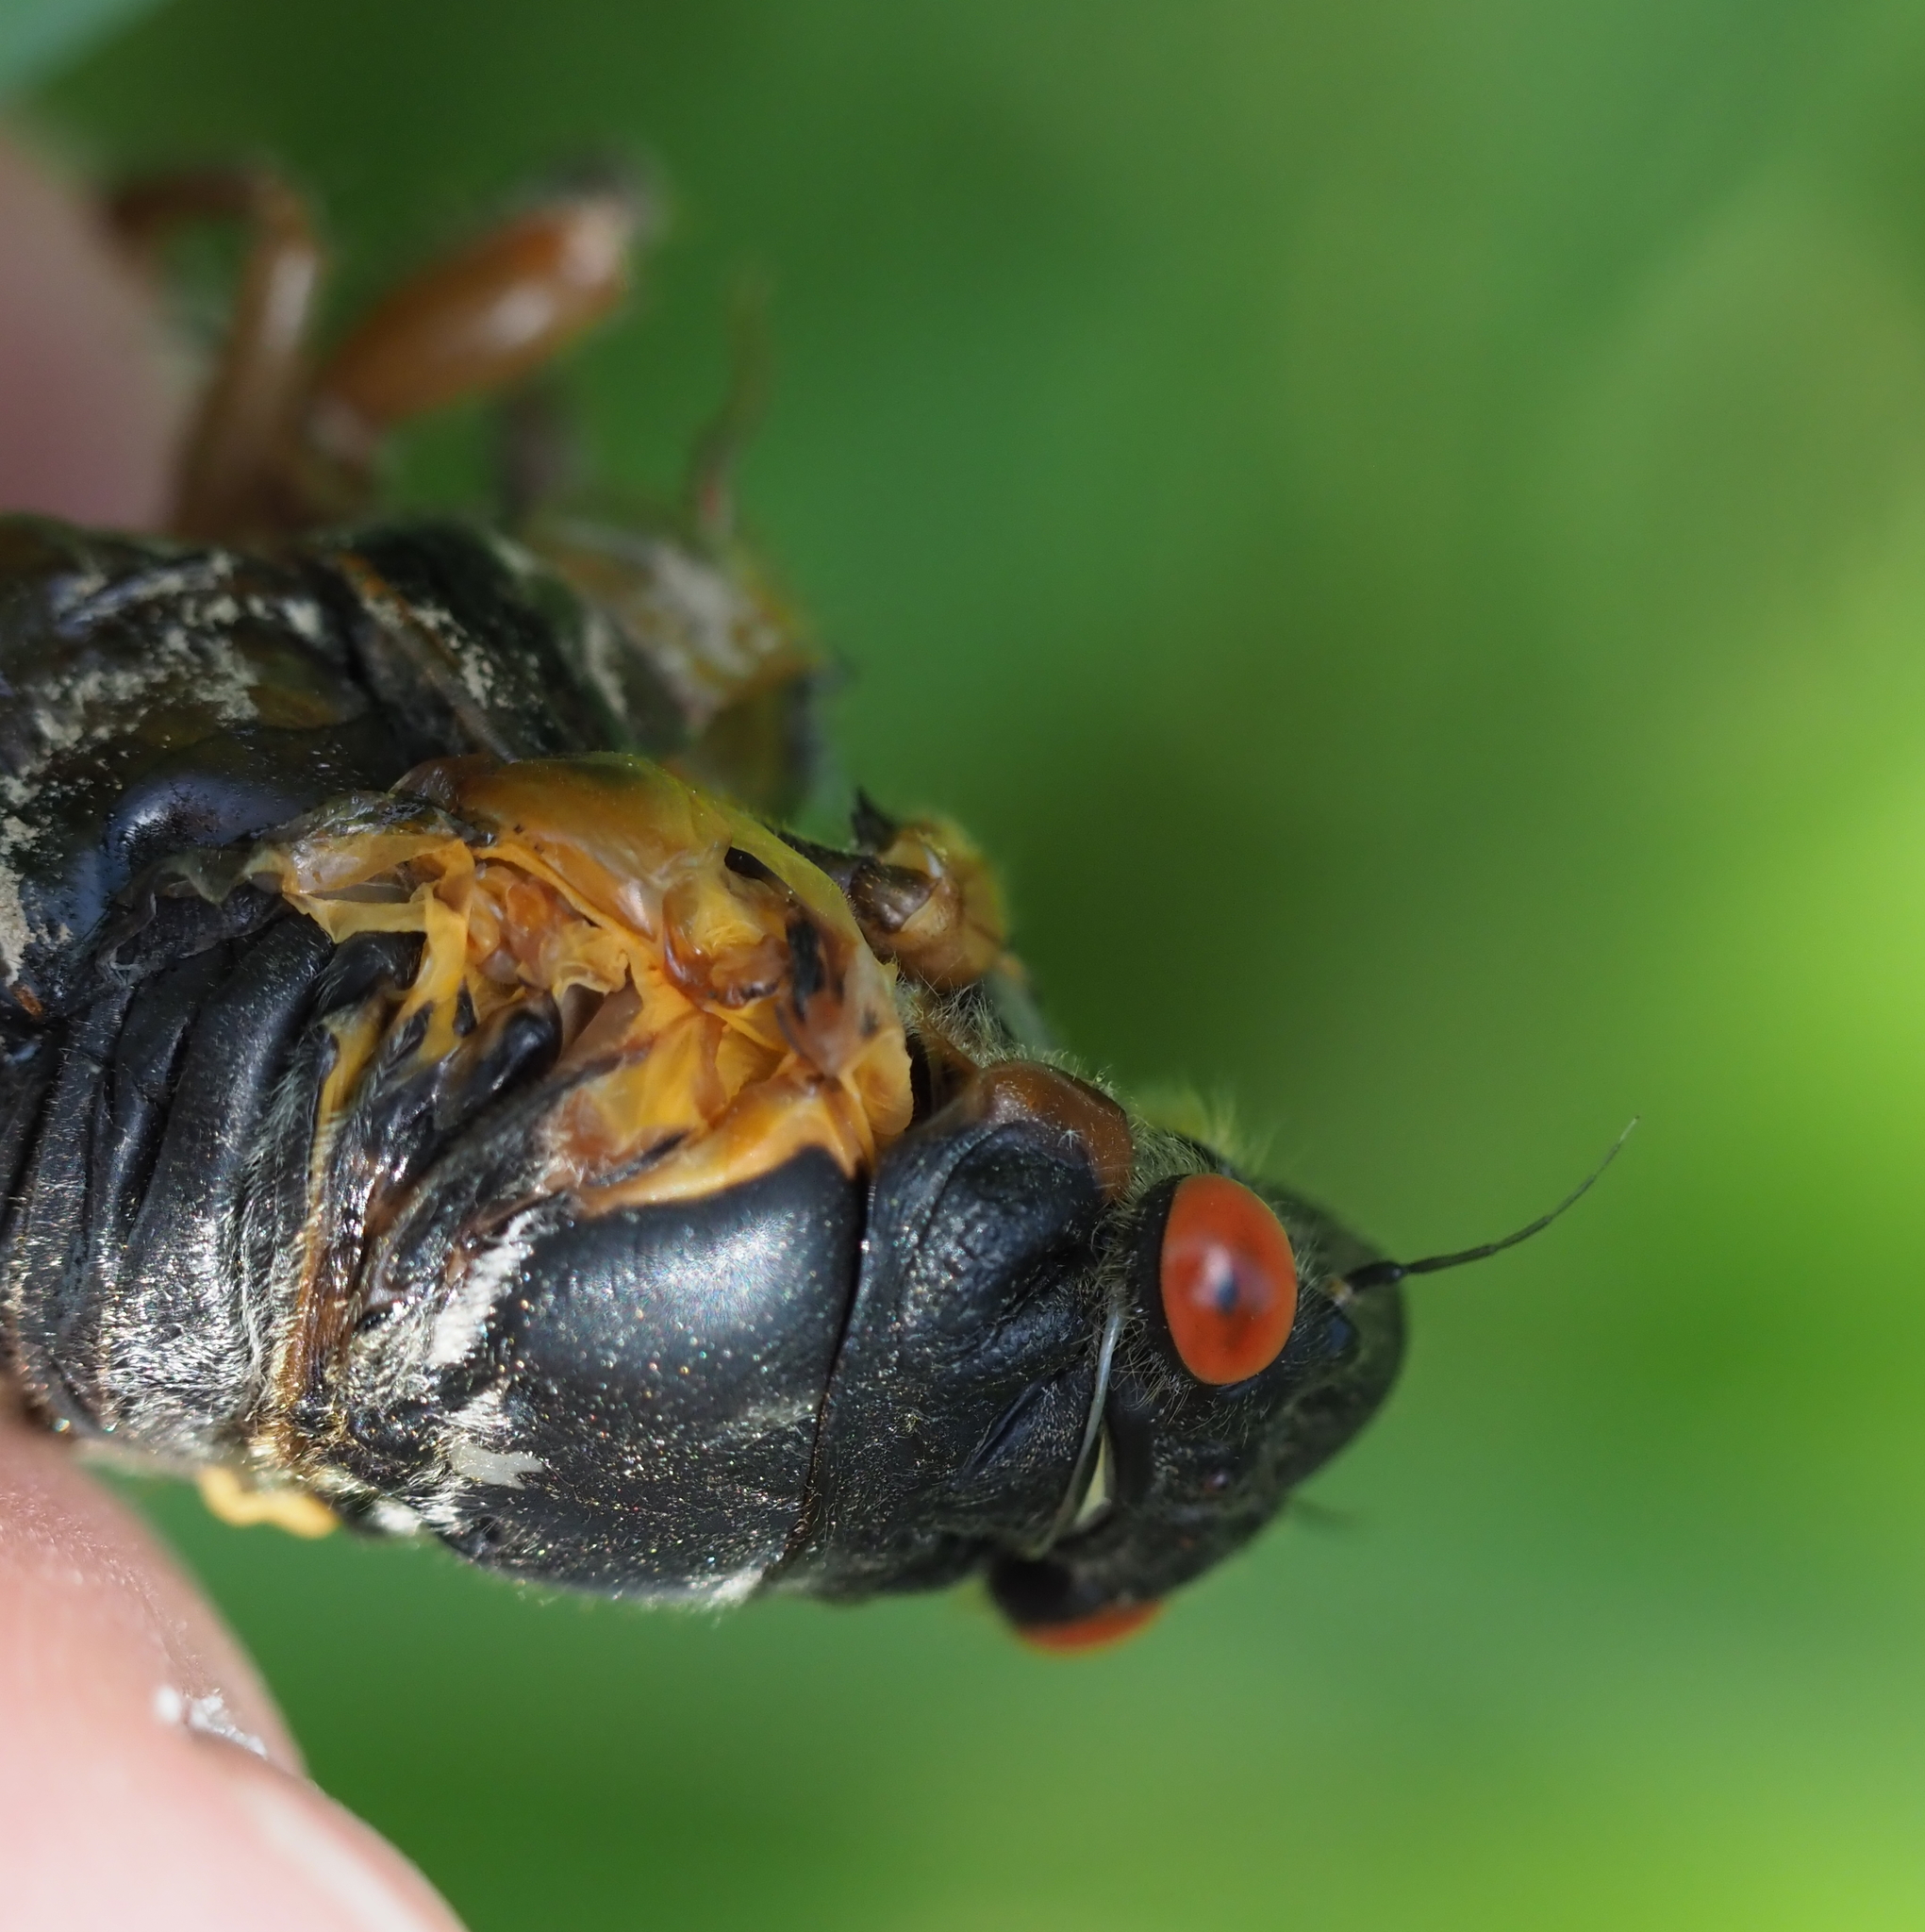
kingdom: Animalia
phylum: Arthropoda
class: Insecta
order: Hemiptera
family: Cicadidae
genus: Magicicada
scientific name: Magicicada septendecim
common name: Periodical cicada
